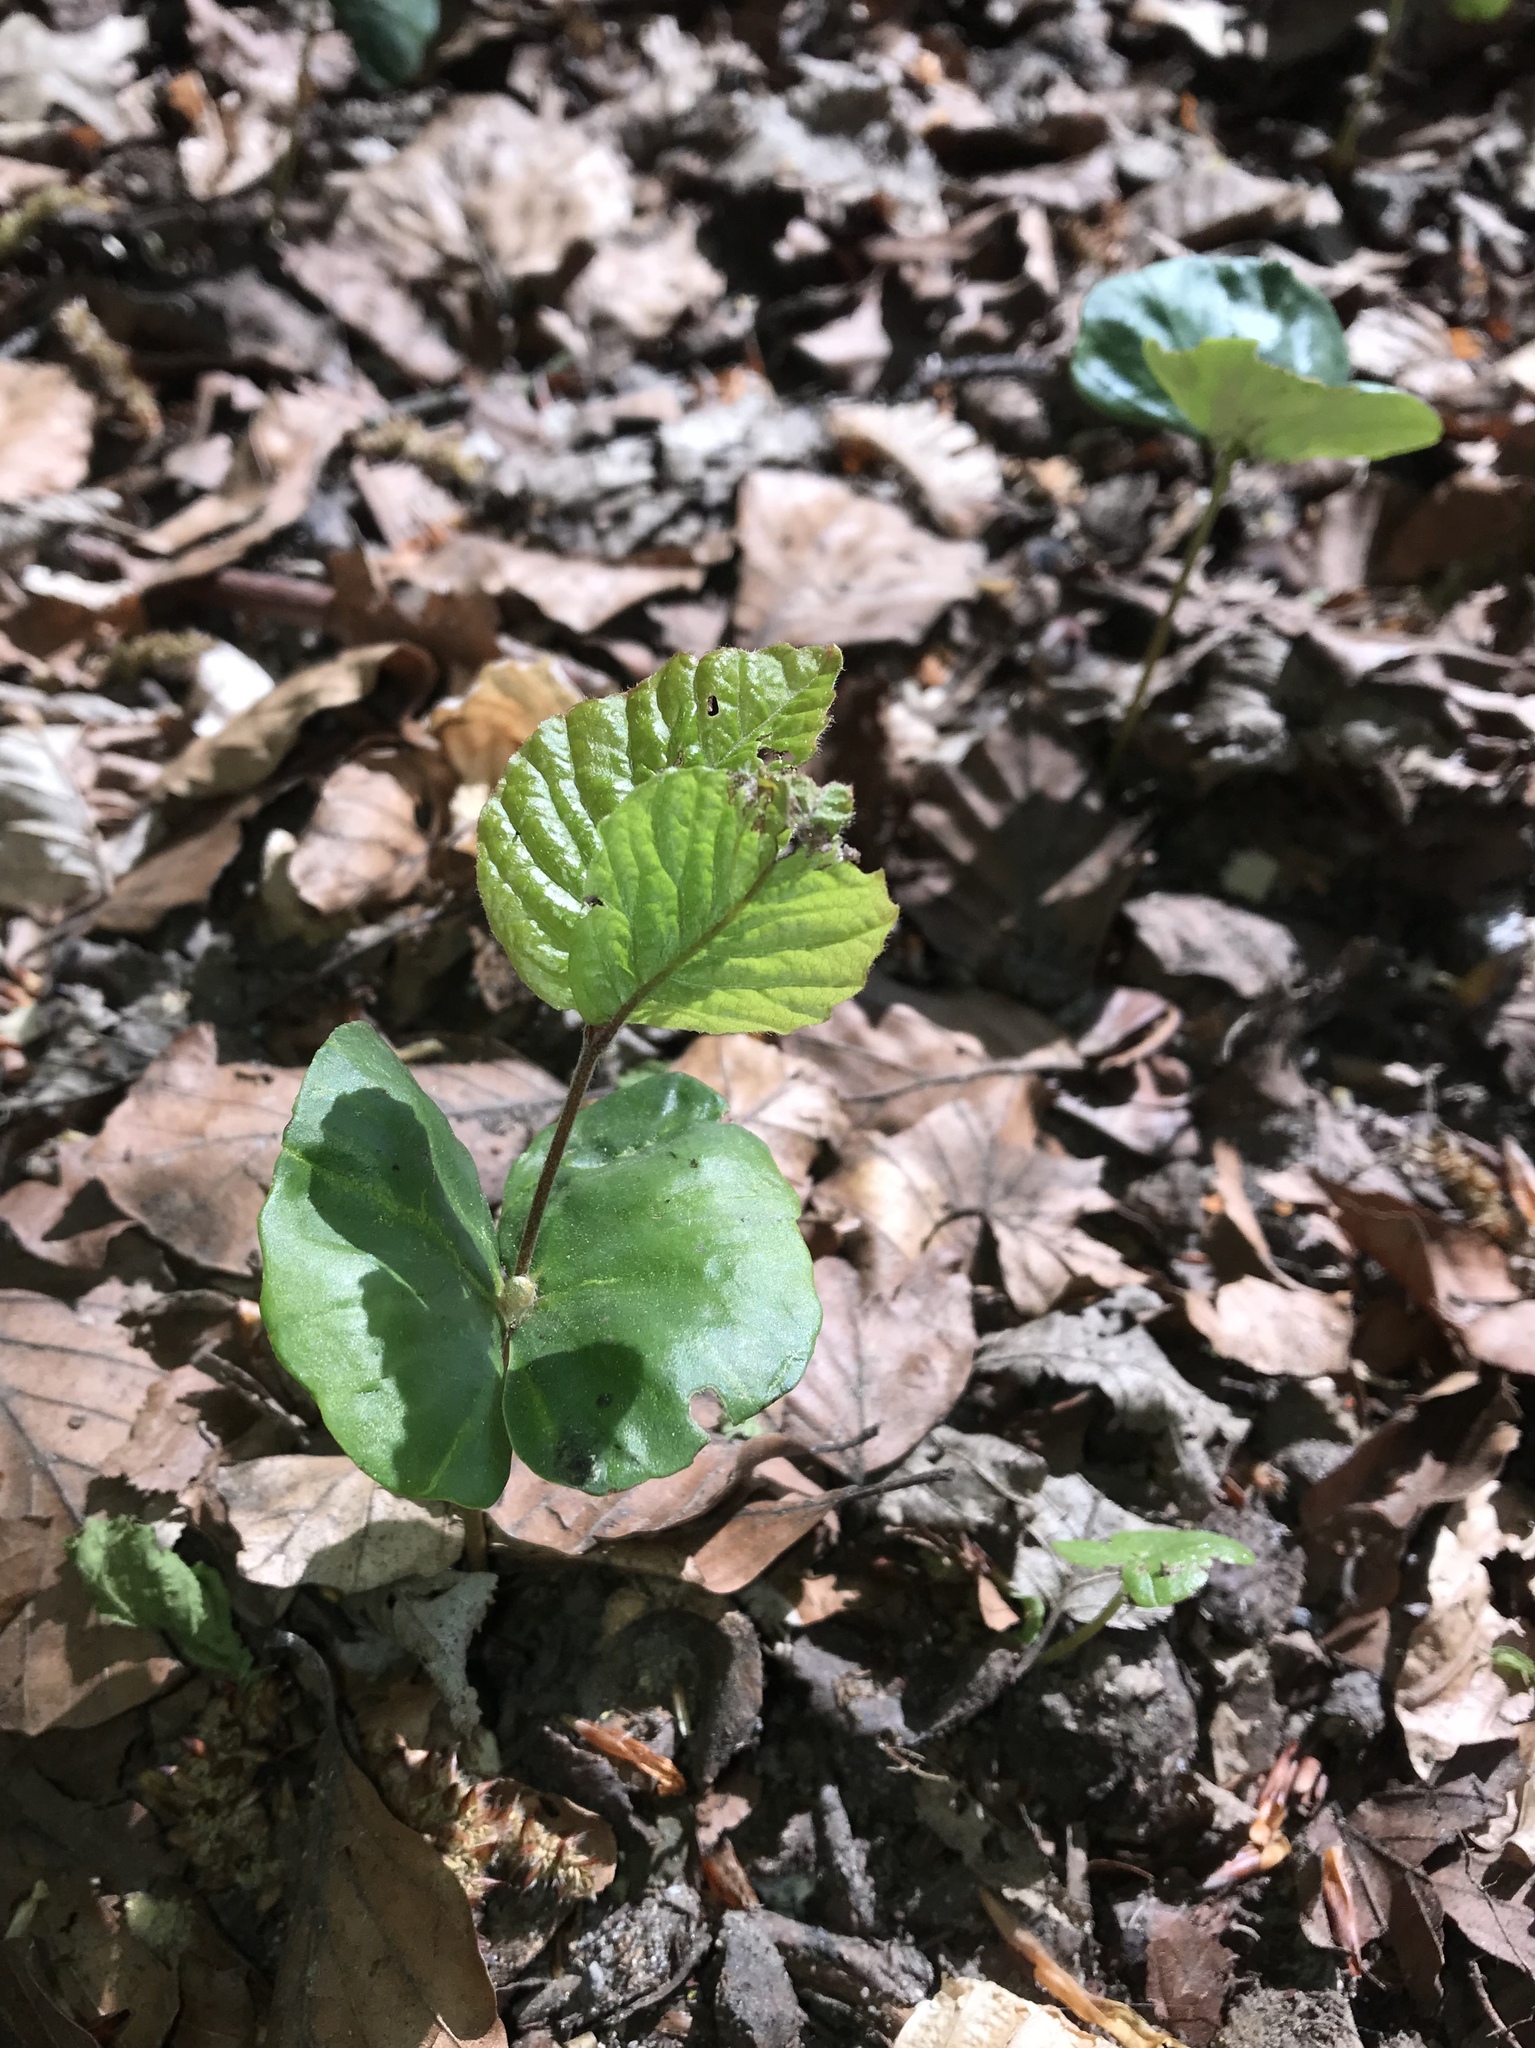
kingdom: Plantae
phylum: Tracheophyta
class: Magnoliopsida
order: Fagales
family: Fagaceae
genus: Fagus
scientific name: Fagus sylvatica
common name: Beech
